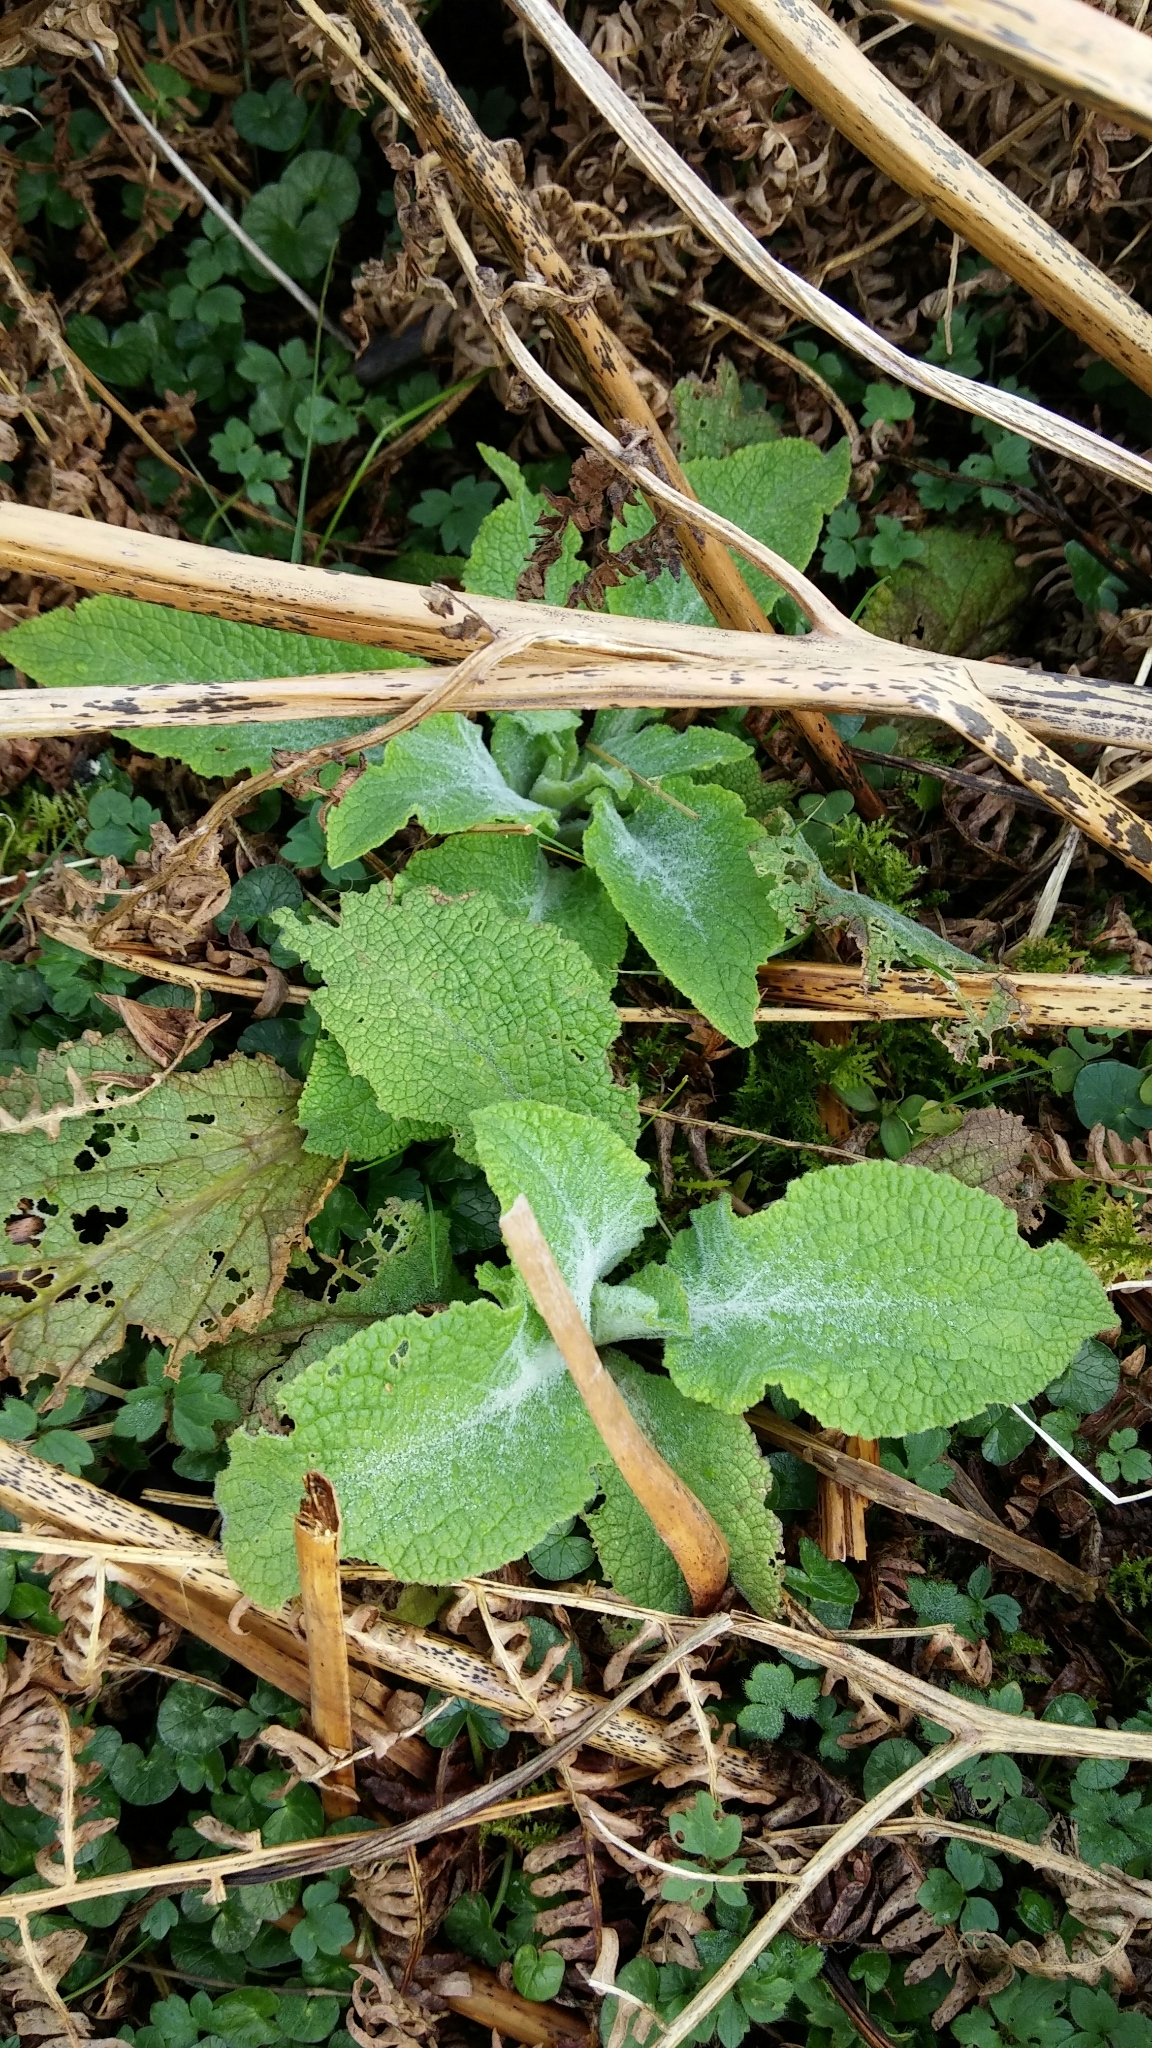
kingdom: Plantae
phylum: Tracheophyta
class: Magnoliopsida
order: Lamiales
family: Plantaginaceae
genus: Digitalis
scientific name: Digitalis purpurea
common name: Foxglove
